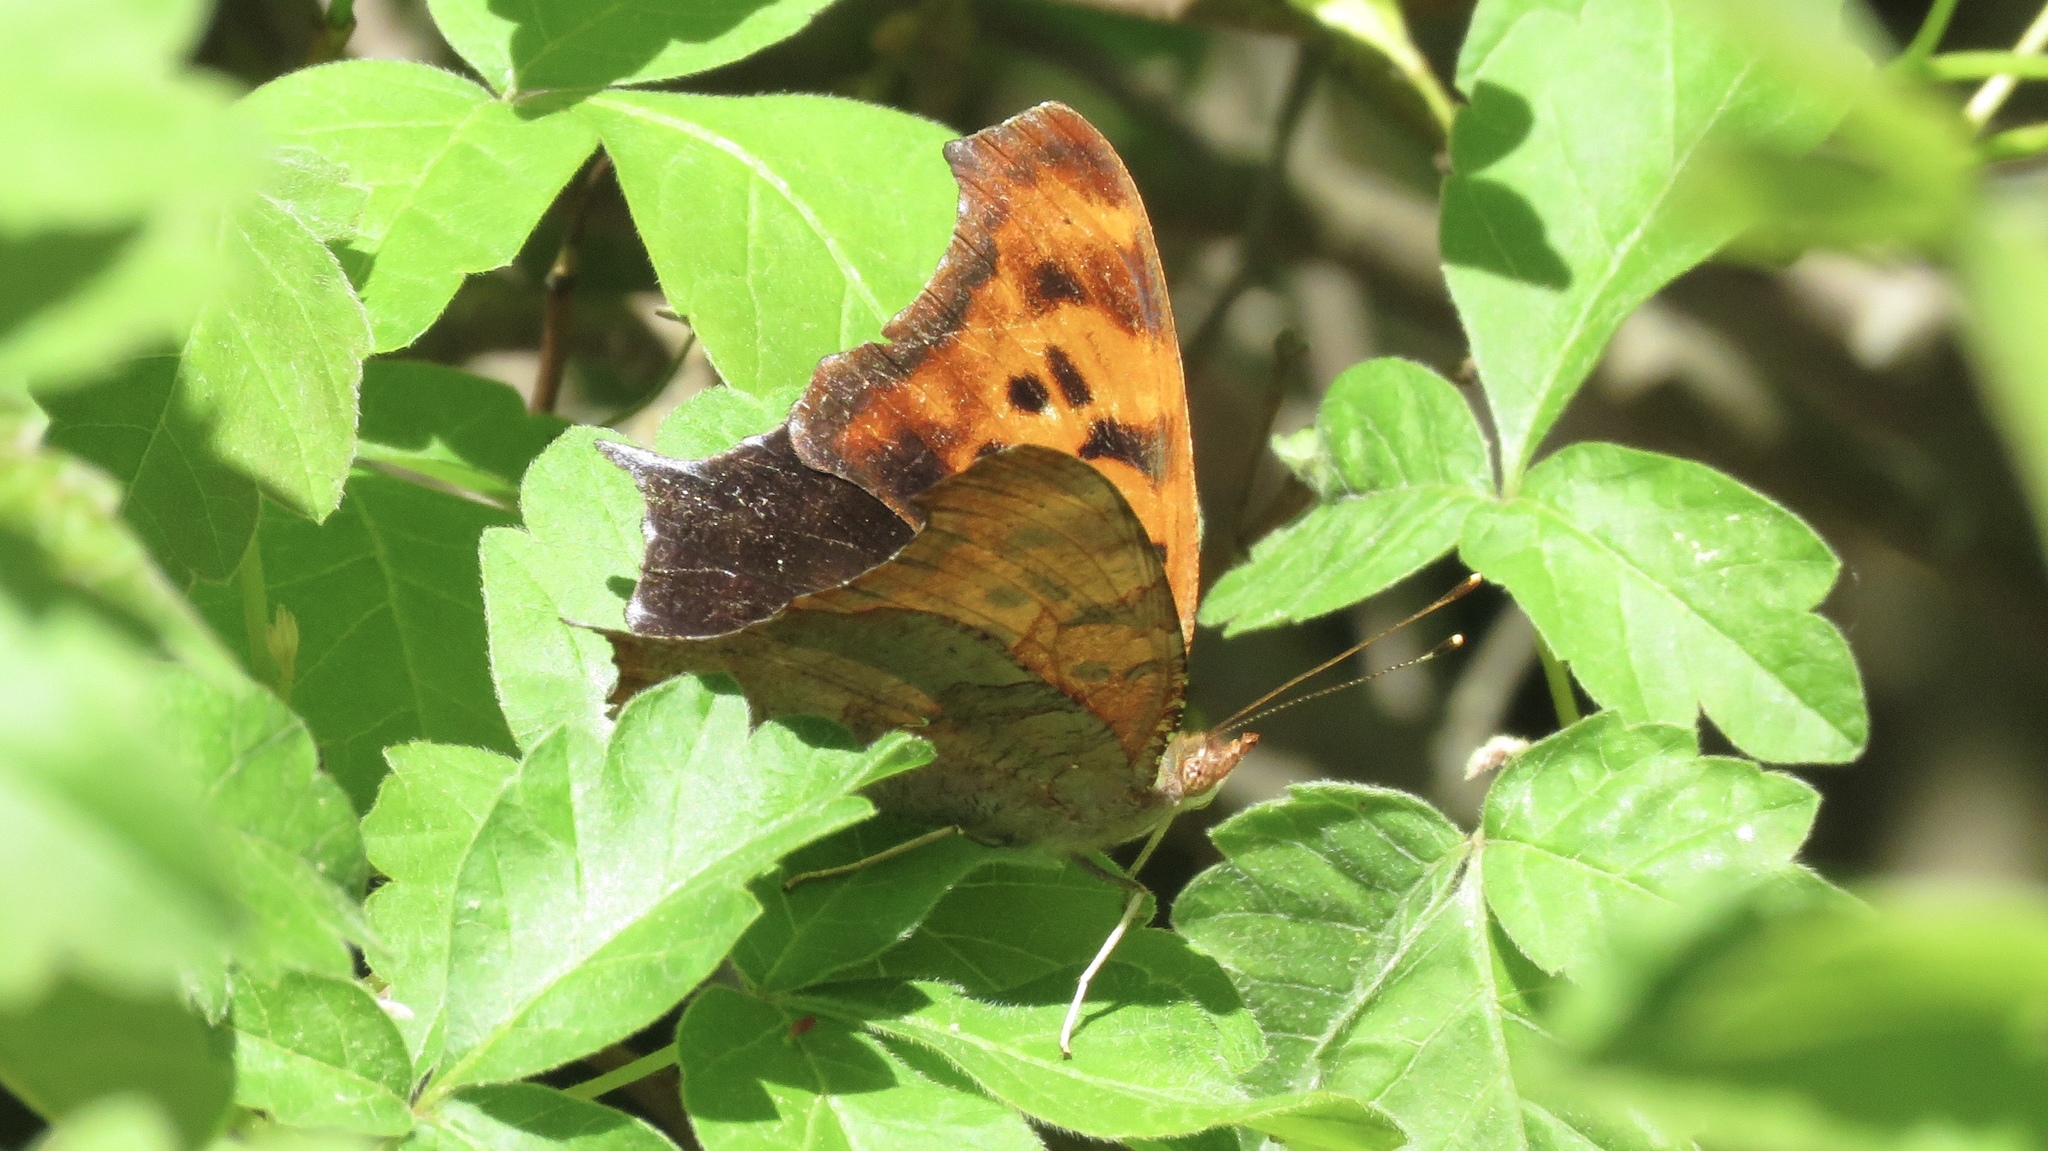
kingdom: Animalia
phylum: Arthropoda
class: Insecta
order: Lepidoptera
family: Nymphalidae
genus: Polygonia
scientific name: Polygonia interrogationis
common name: Question mark
